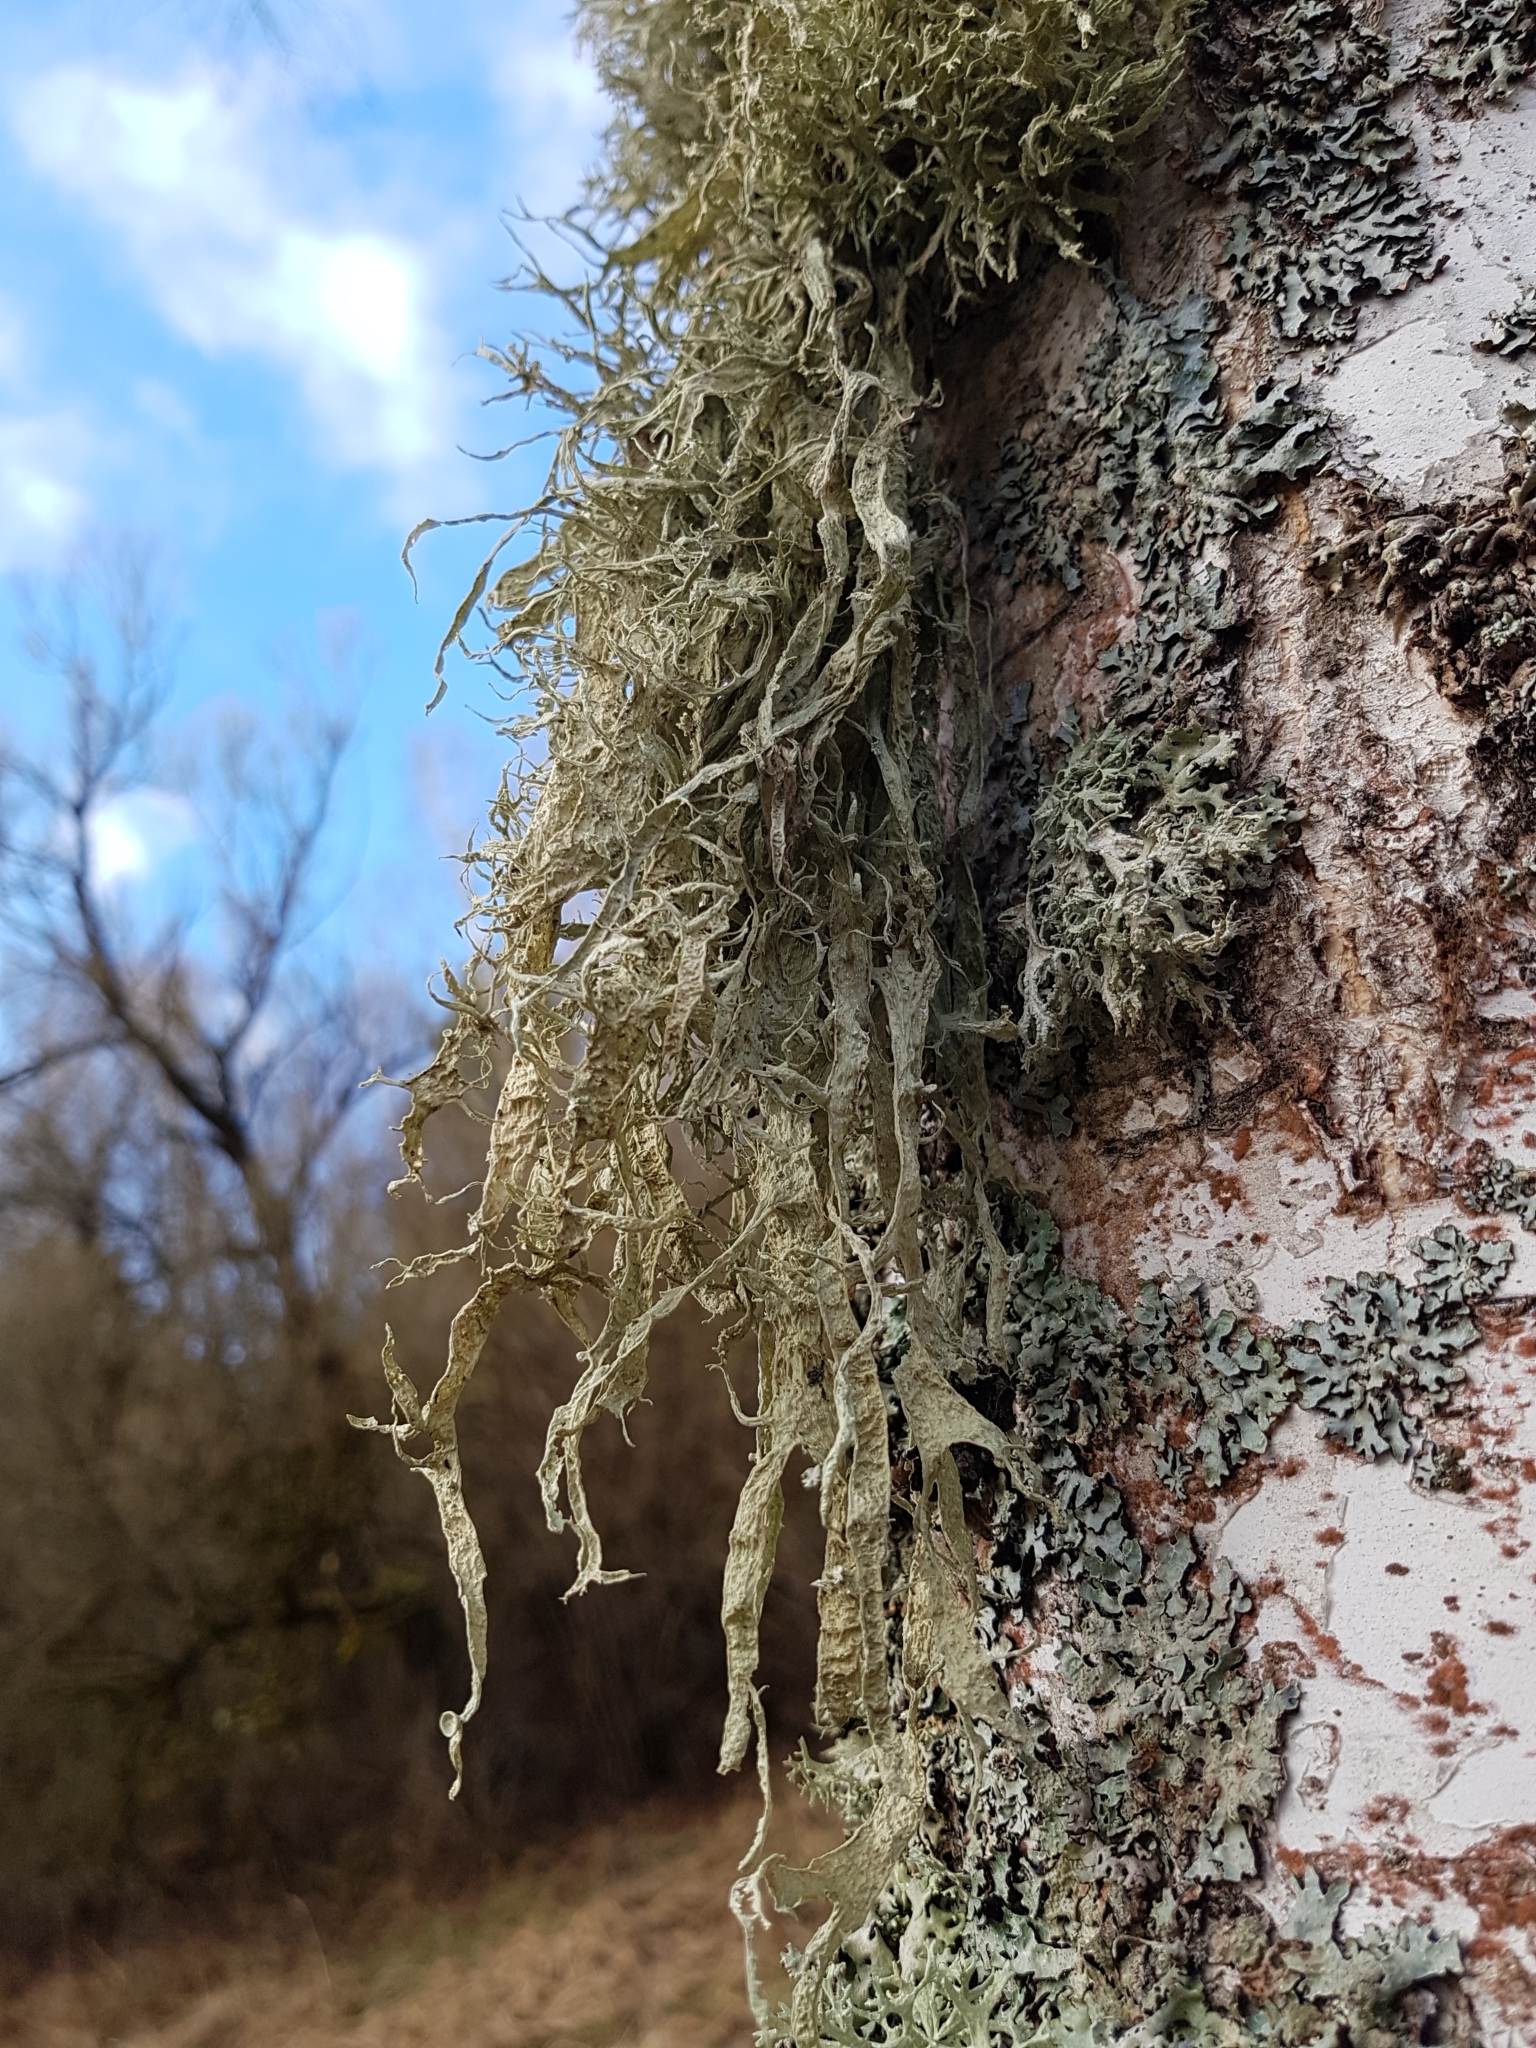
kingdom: Fungi
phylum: Ascomycota
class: Lecanoromycetes
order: Lecanorales
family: Ramalinaceae
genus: Ramalina
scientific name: Ramalina fraxinea
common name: Cartilage lichen
